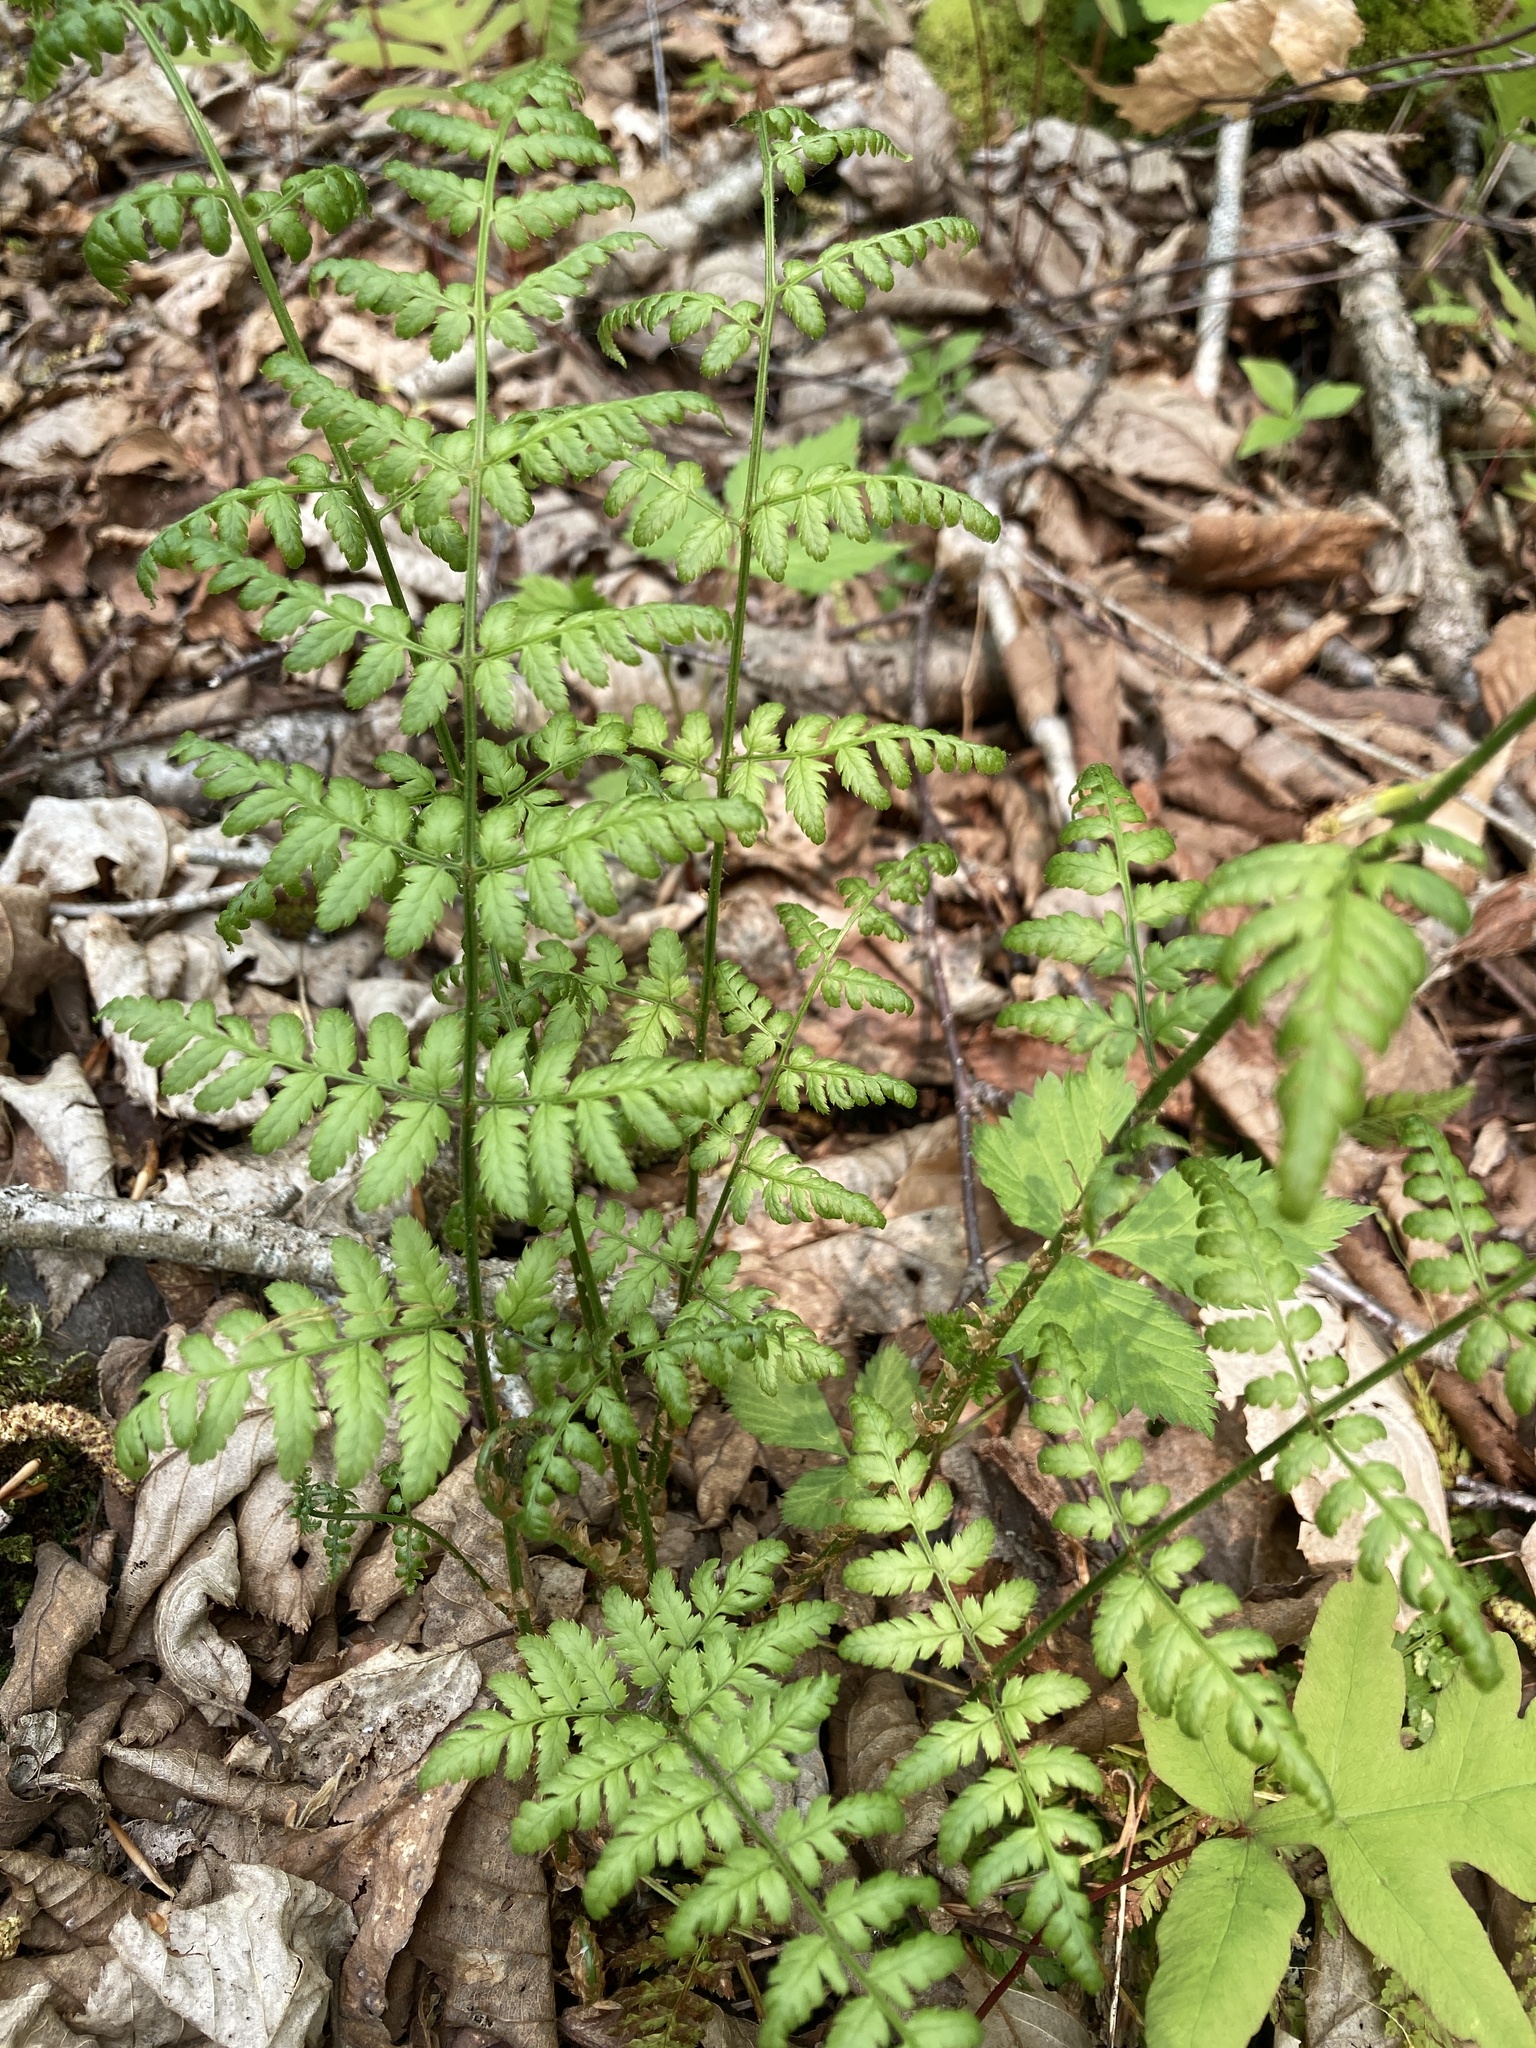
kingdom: Plantae
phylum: Tracheophyta
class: Polypodiopsida
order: Polypodiales
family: Dryopteridaceae
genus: Dryopteris
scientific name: Dryopteris carthusiana
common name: Narrow buckler-fern
